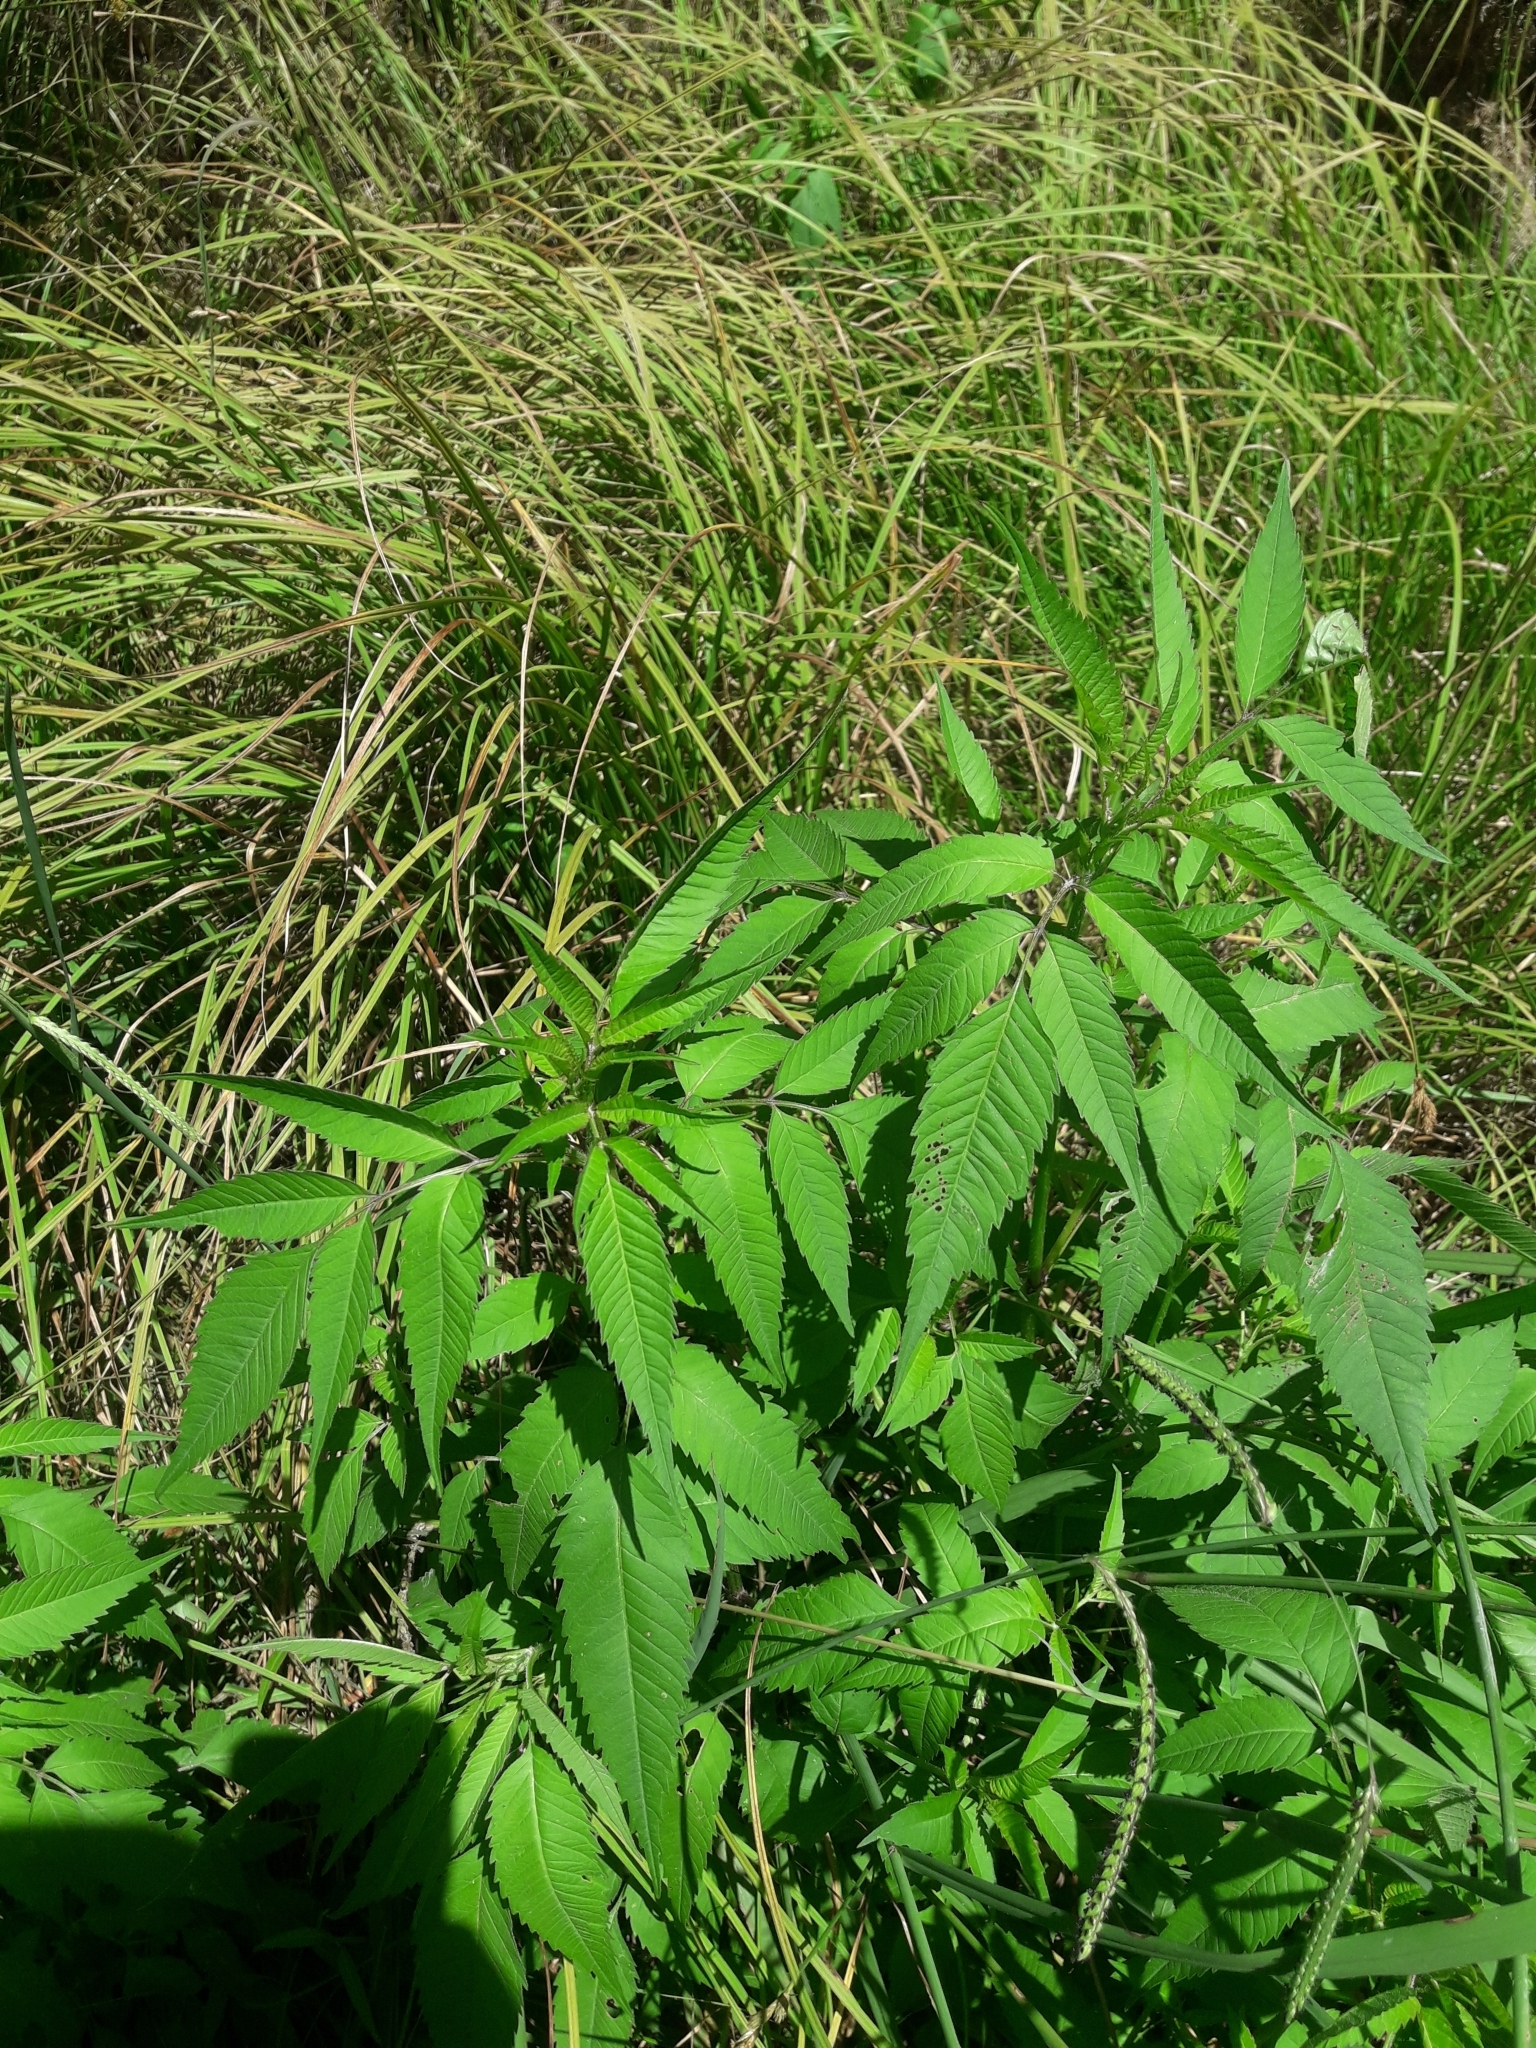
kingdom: Plantae
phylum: Tracheophyta
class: Magnoliopsida
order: Asterales
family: Asteraceae
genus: Bidens
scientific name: Bidens frondosa
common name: Beggarticks
